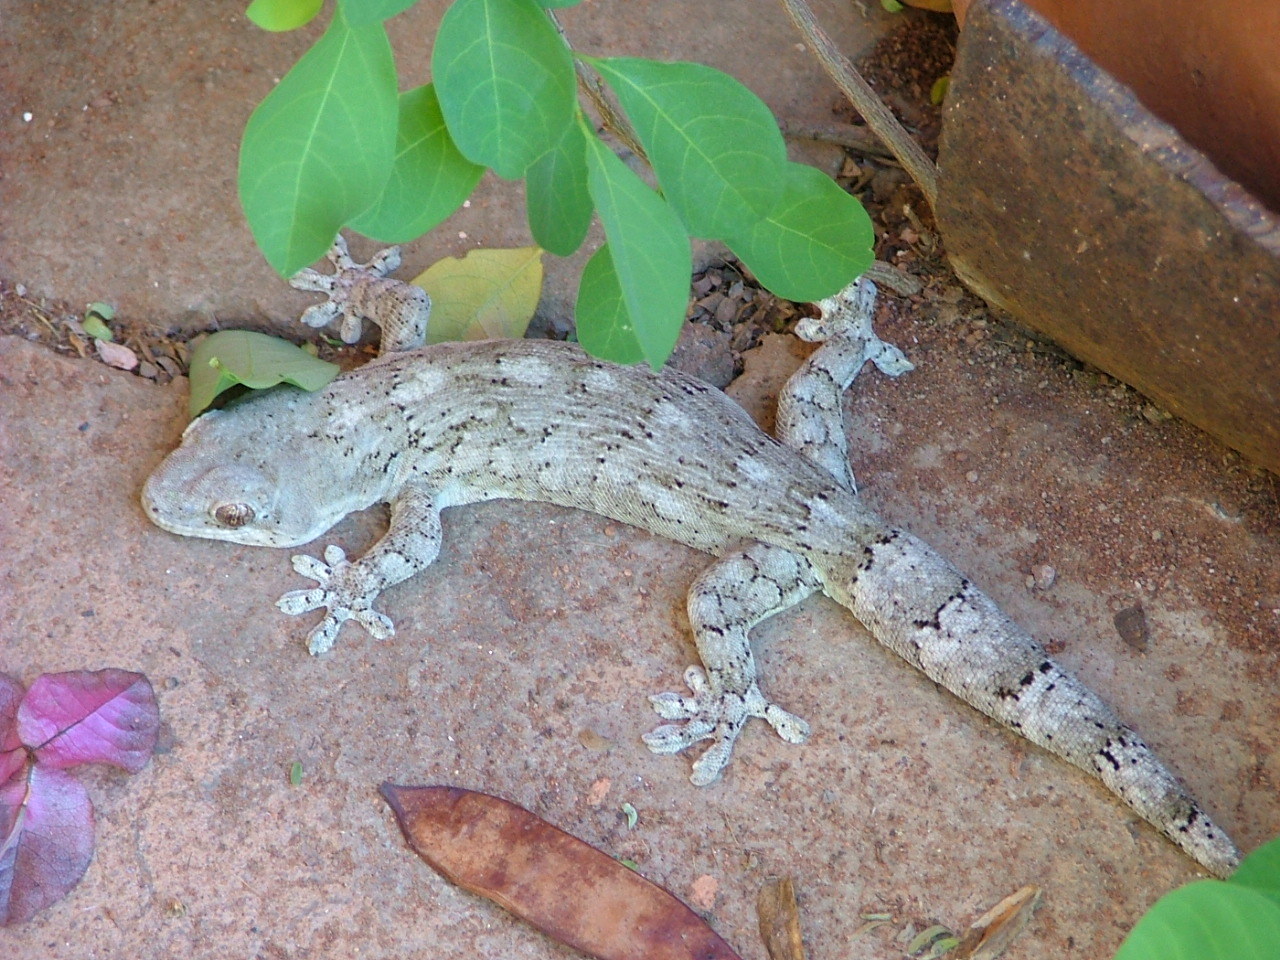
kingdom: Animalia
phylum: Chordata
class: Squamata
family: Gekkonidae
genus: Homopholis
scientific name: Homopholis arnoldi
